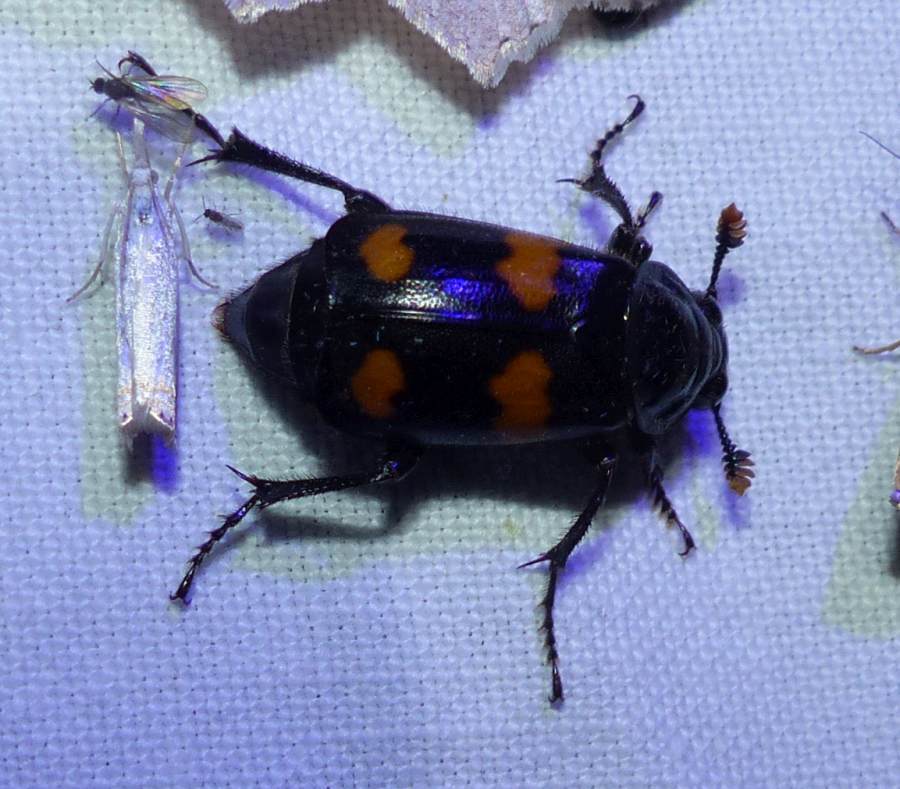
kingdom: Animalia
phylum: Arthropoda
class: Insecta
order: Coleoptera
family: Staphylinidae
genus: Nicrophorus
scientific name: Nicrophorus orbicollis
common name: Roundneck sexton beetle
